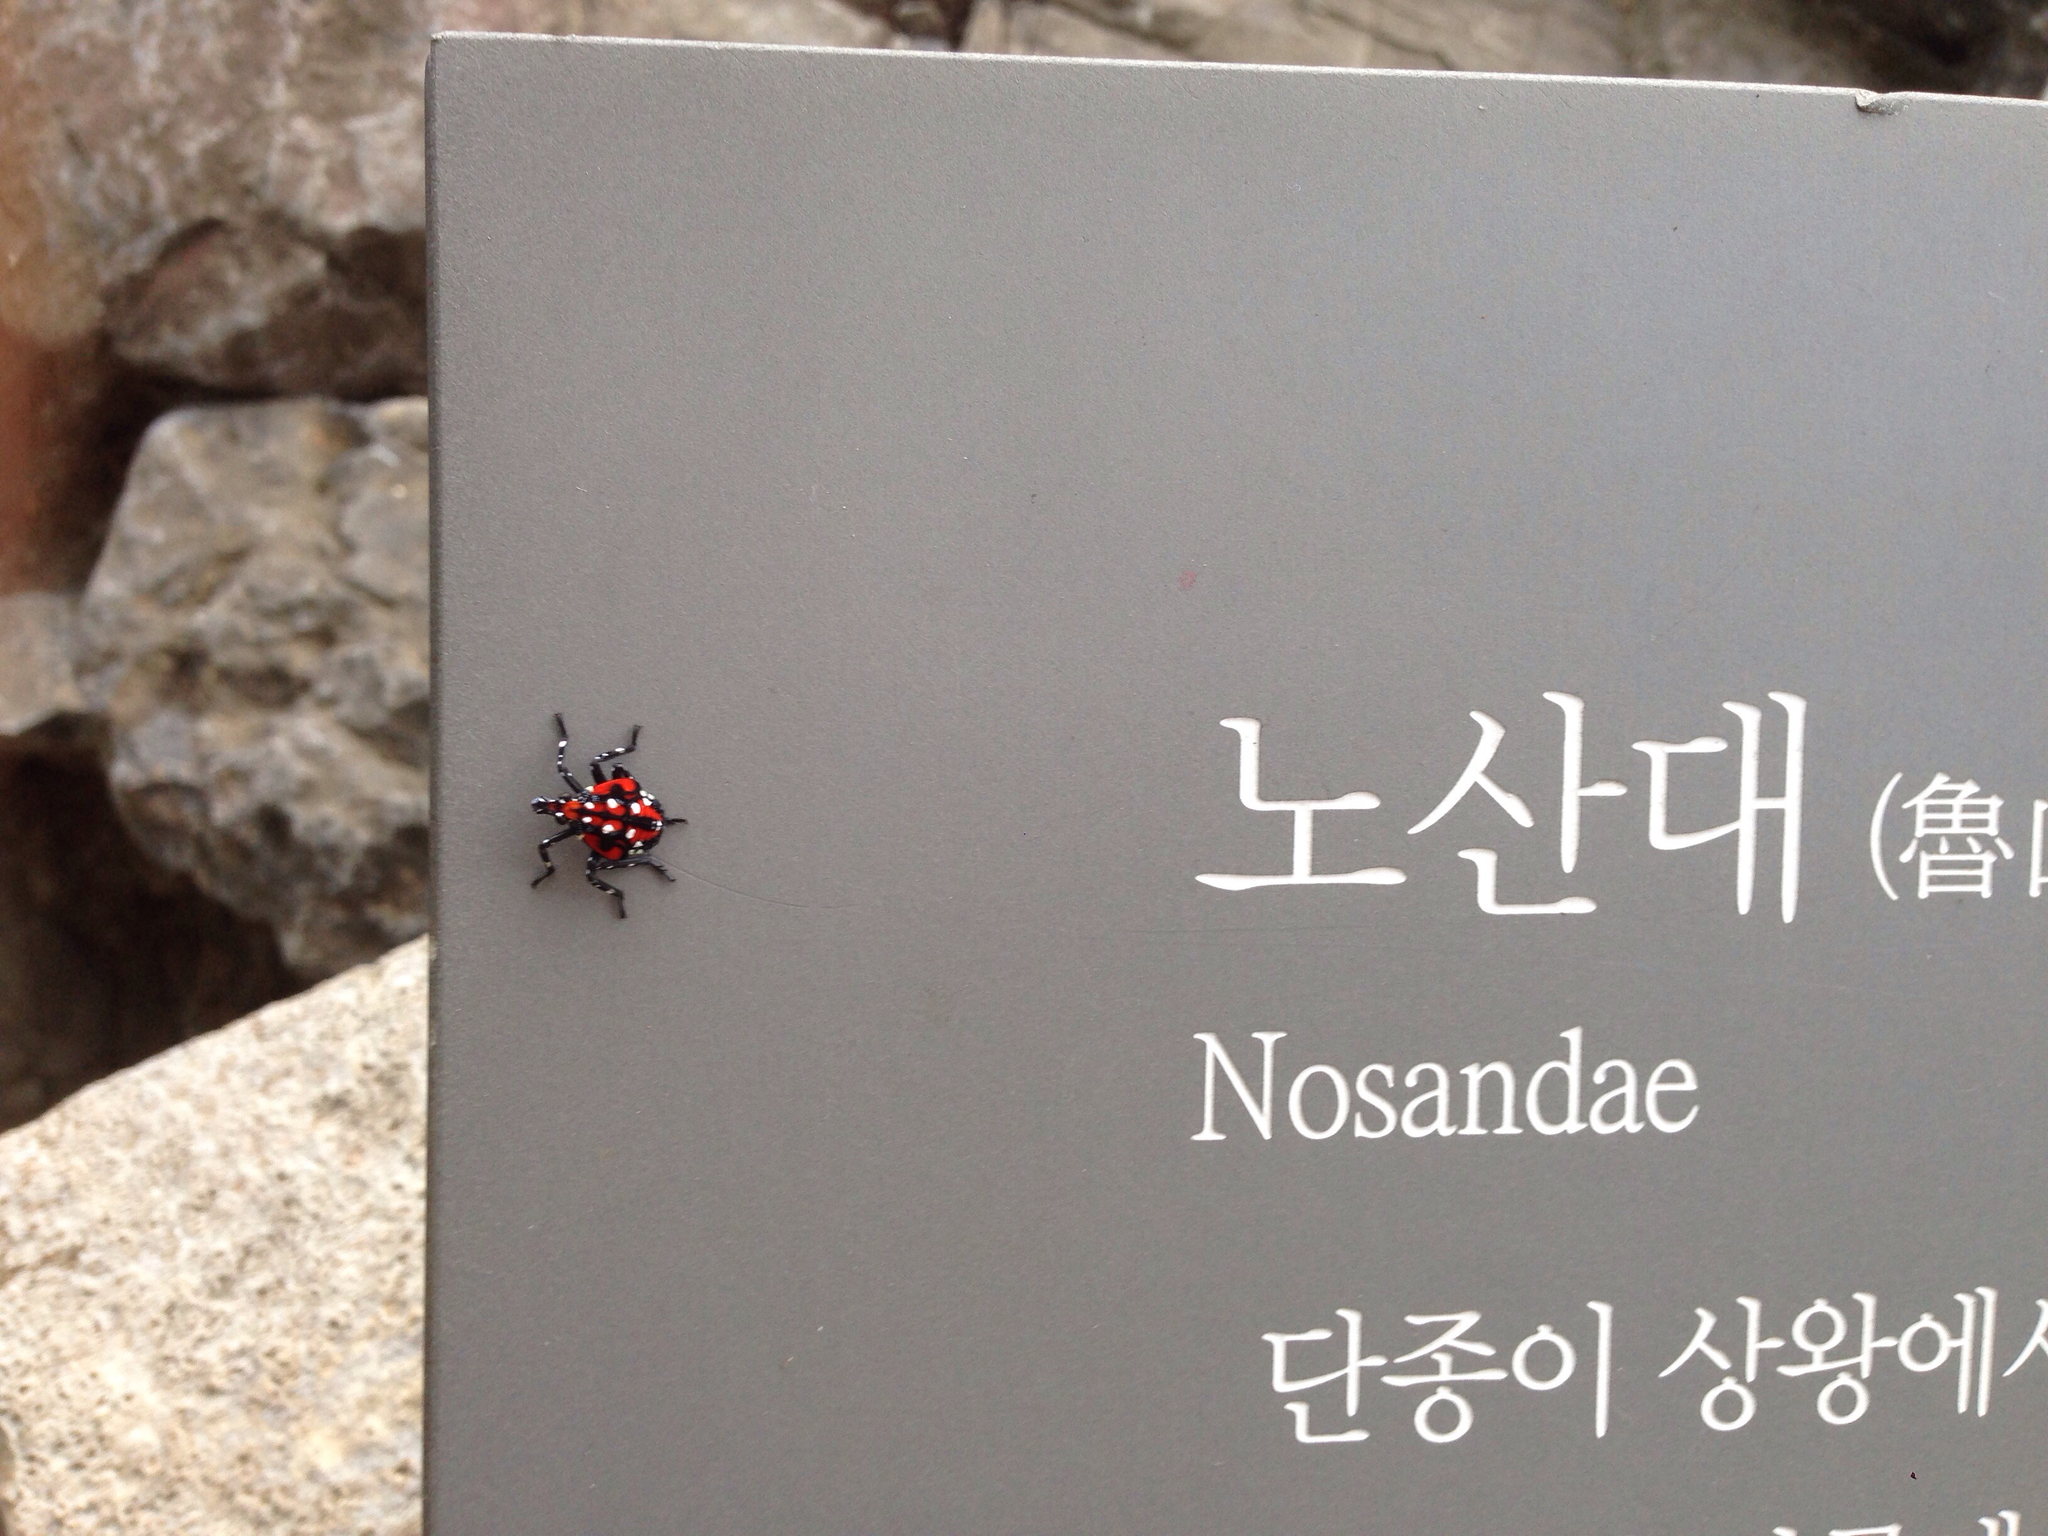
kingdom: Animalia
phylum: Arthropoda
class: Insecta
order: Hemiptera
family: Fulgoridae
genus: Lycorma
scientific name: Lycorma delicatula
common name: Spotted lanternfly
